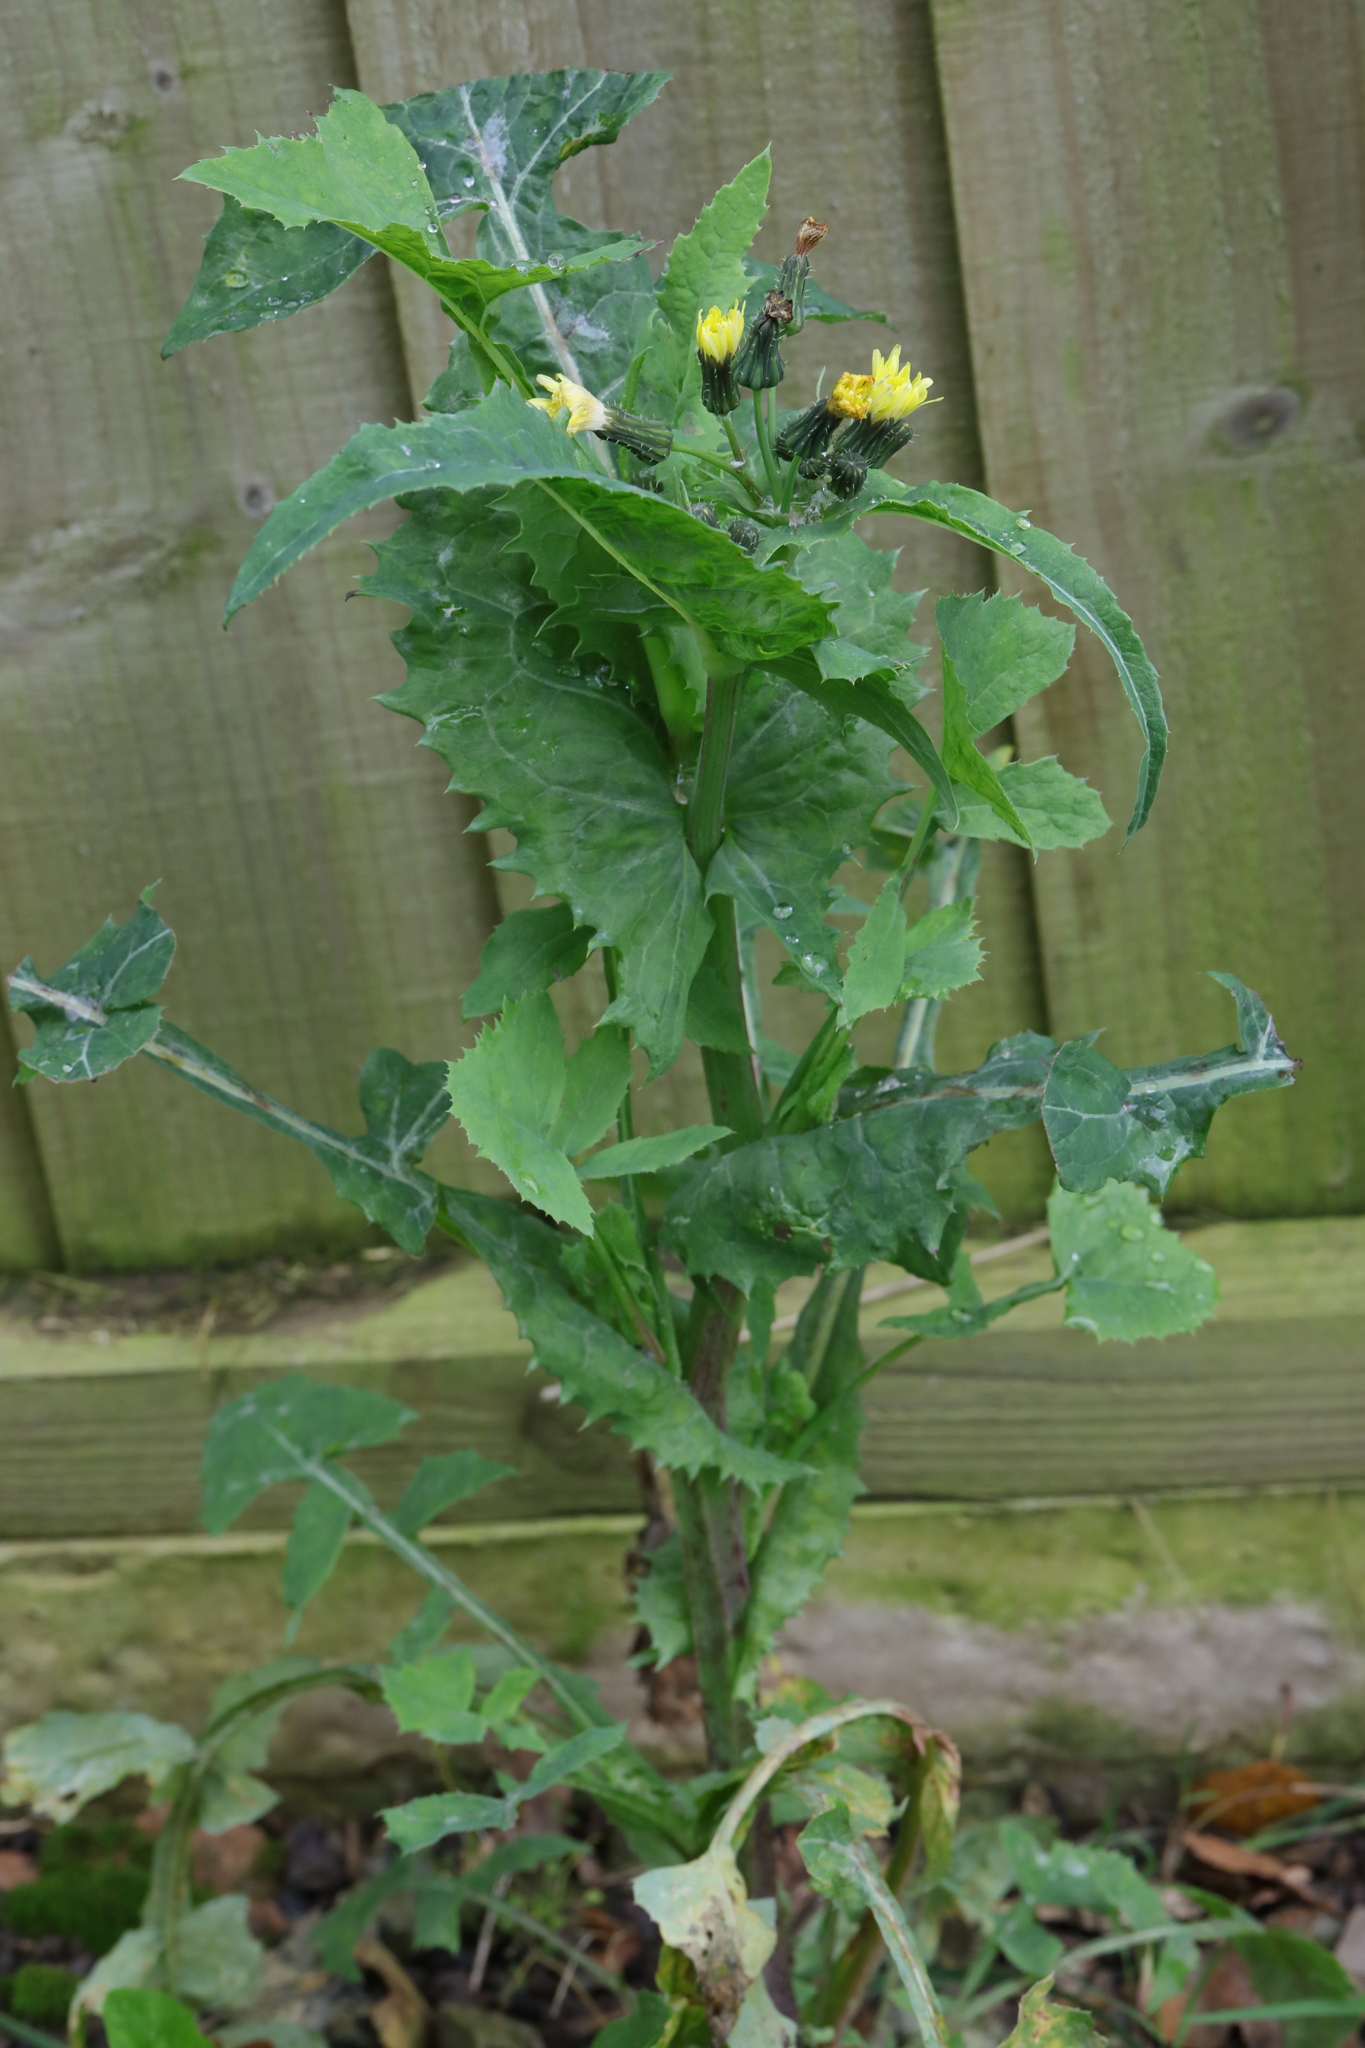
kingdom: Plantae
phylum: Tracheophyta
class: Magnoliopsida
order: Asterales
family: Asteraceae
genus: Sonchus
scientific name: Sonchus oleraceus
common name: Common sowthistle
